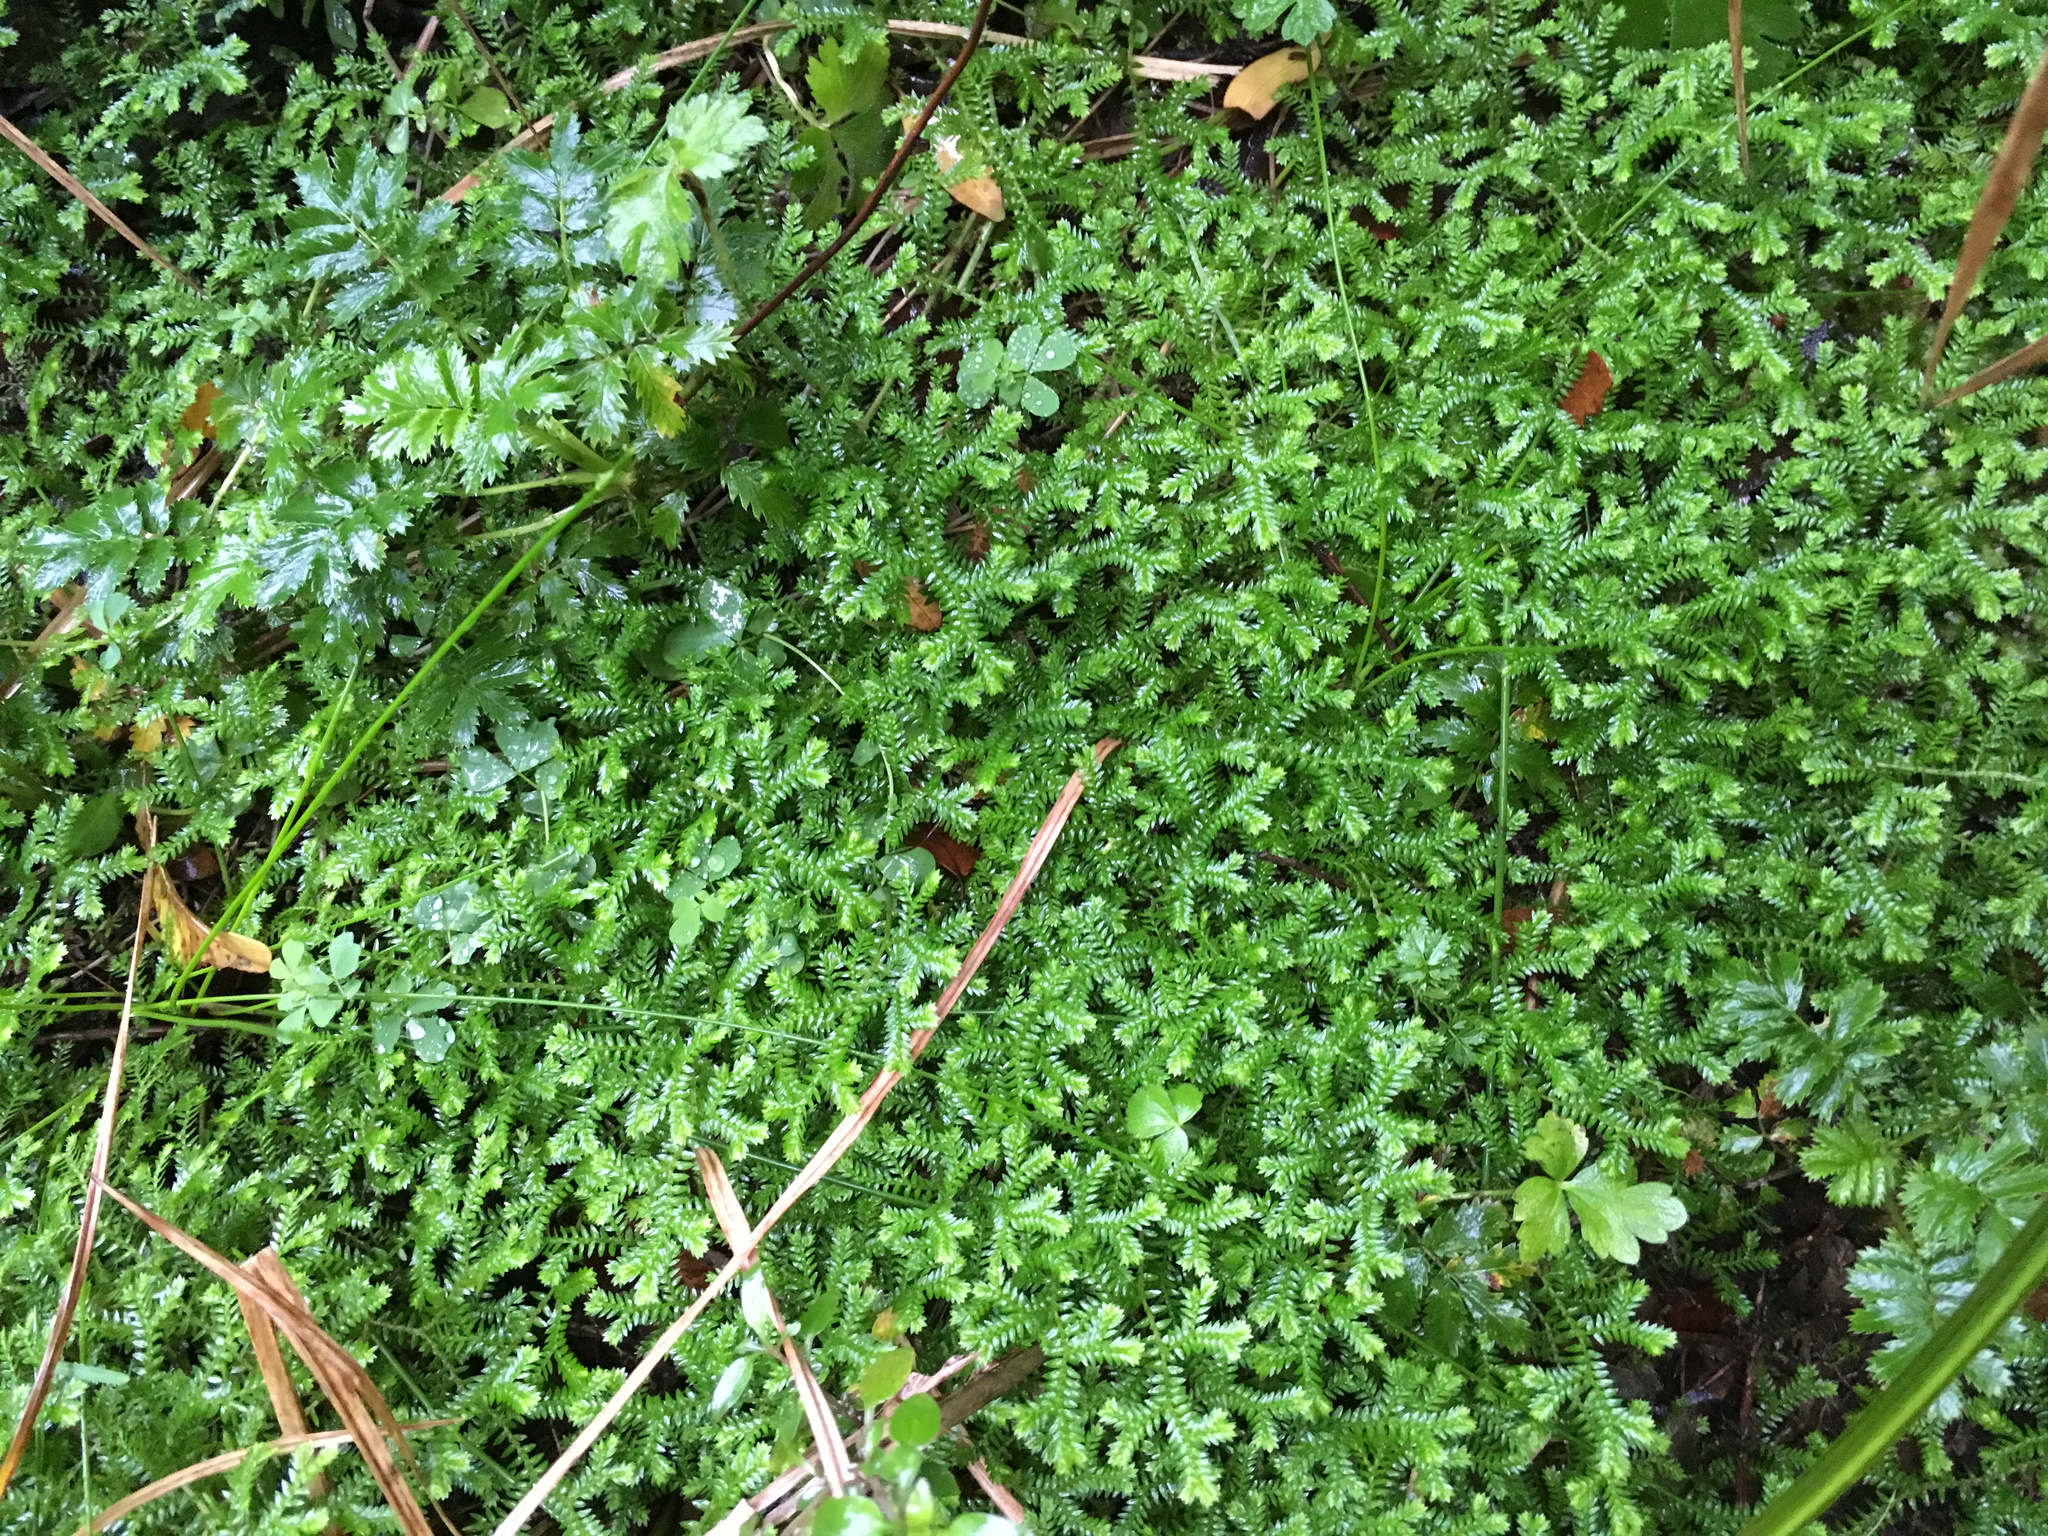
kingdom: Plantae
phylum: Tracheophyta
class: Lycopodiopsida
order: Selaginellales
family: Selaginellaceae
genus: Selaginella
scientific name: Selaginella kraussiana
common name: Krauss' spikemoss
